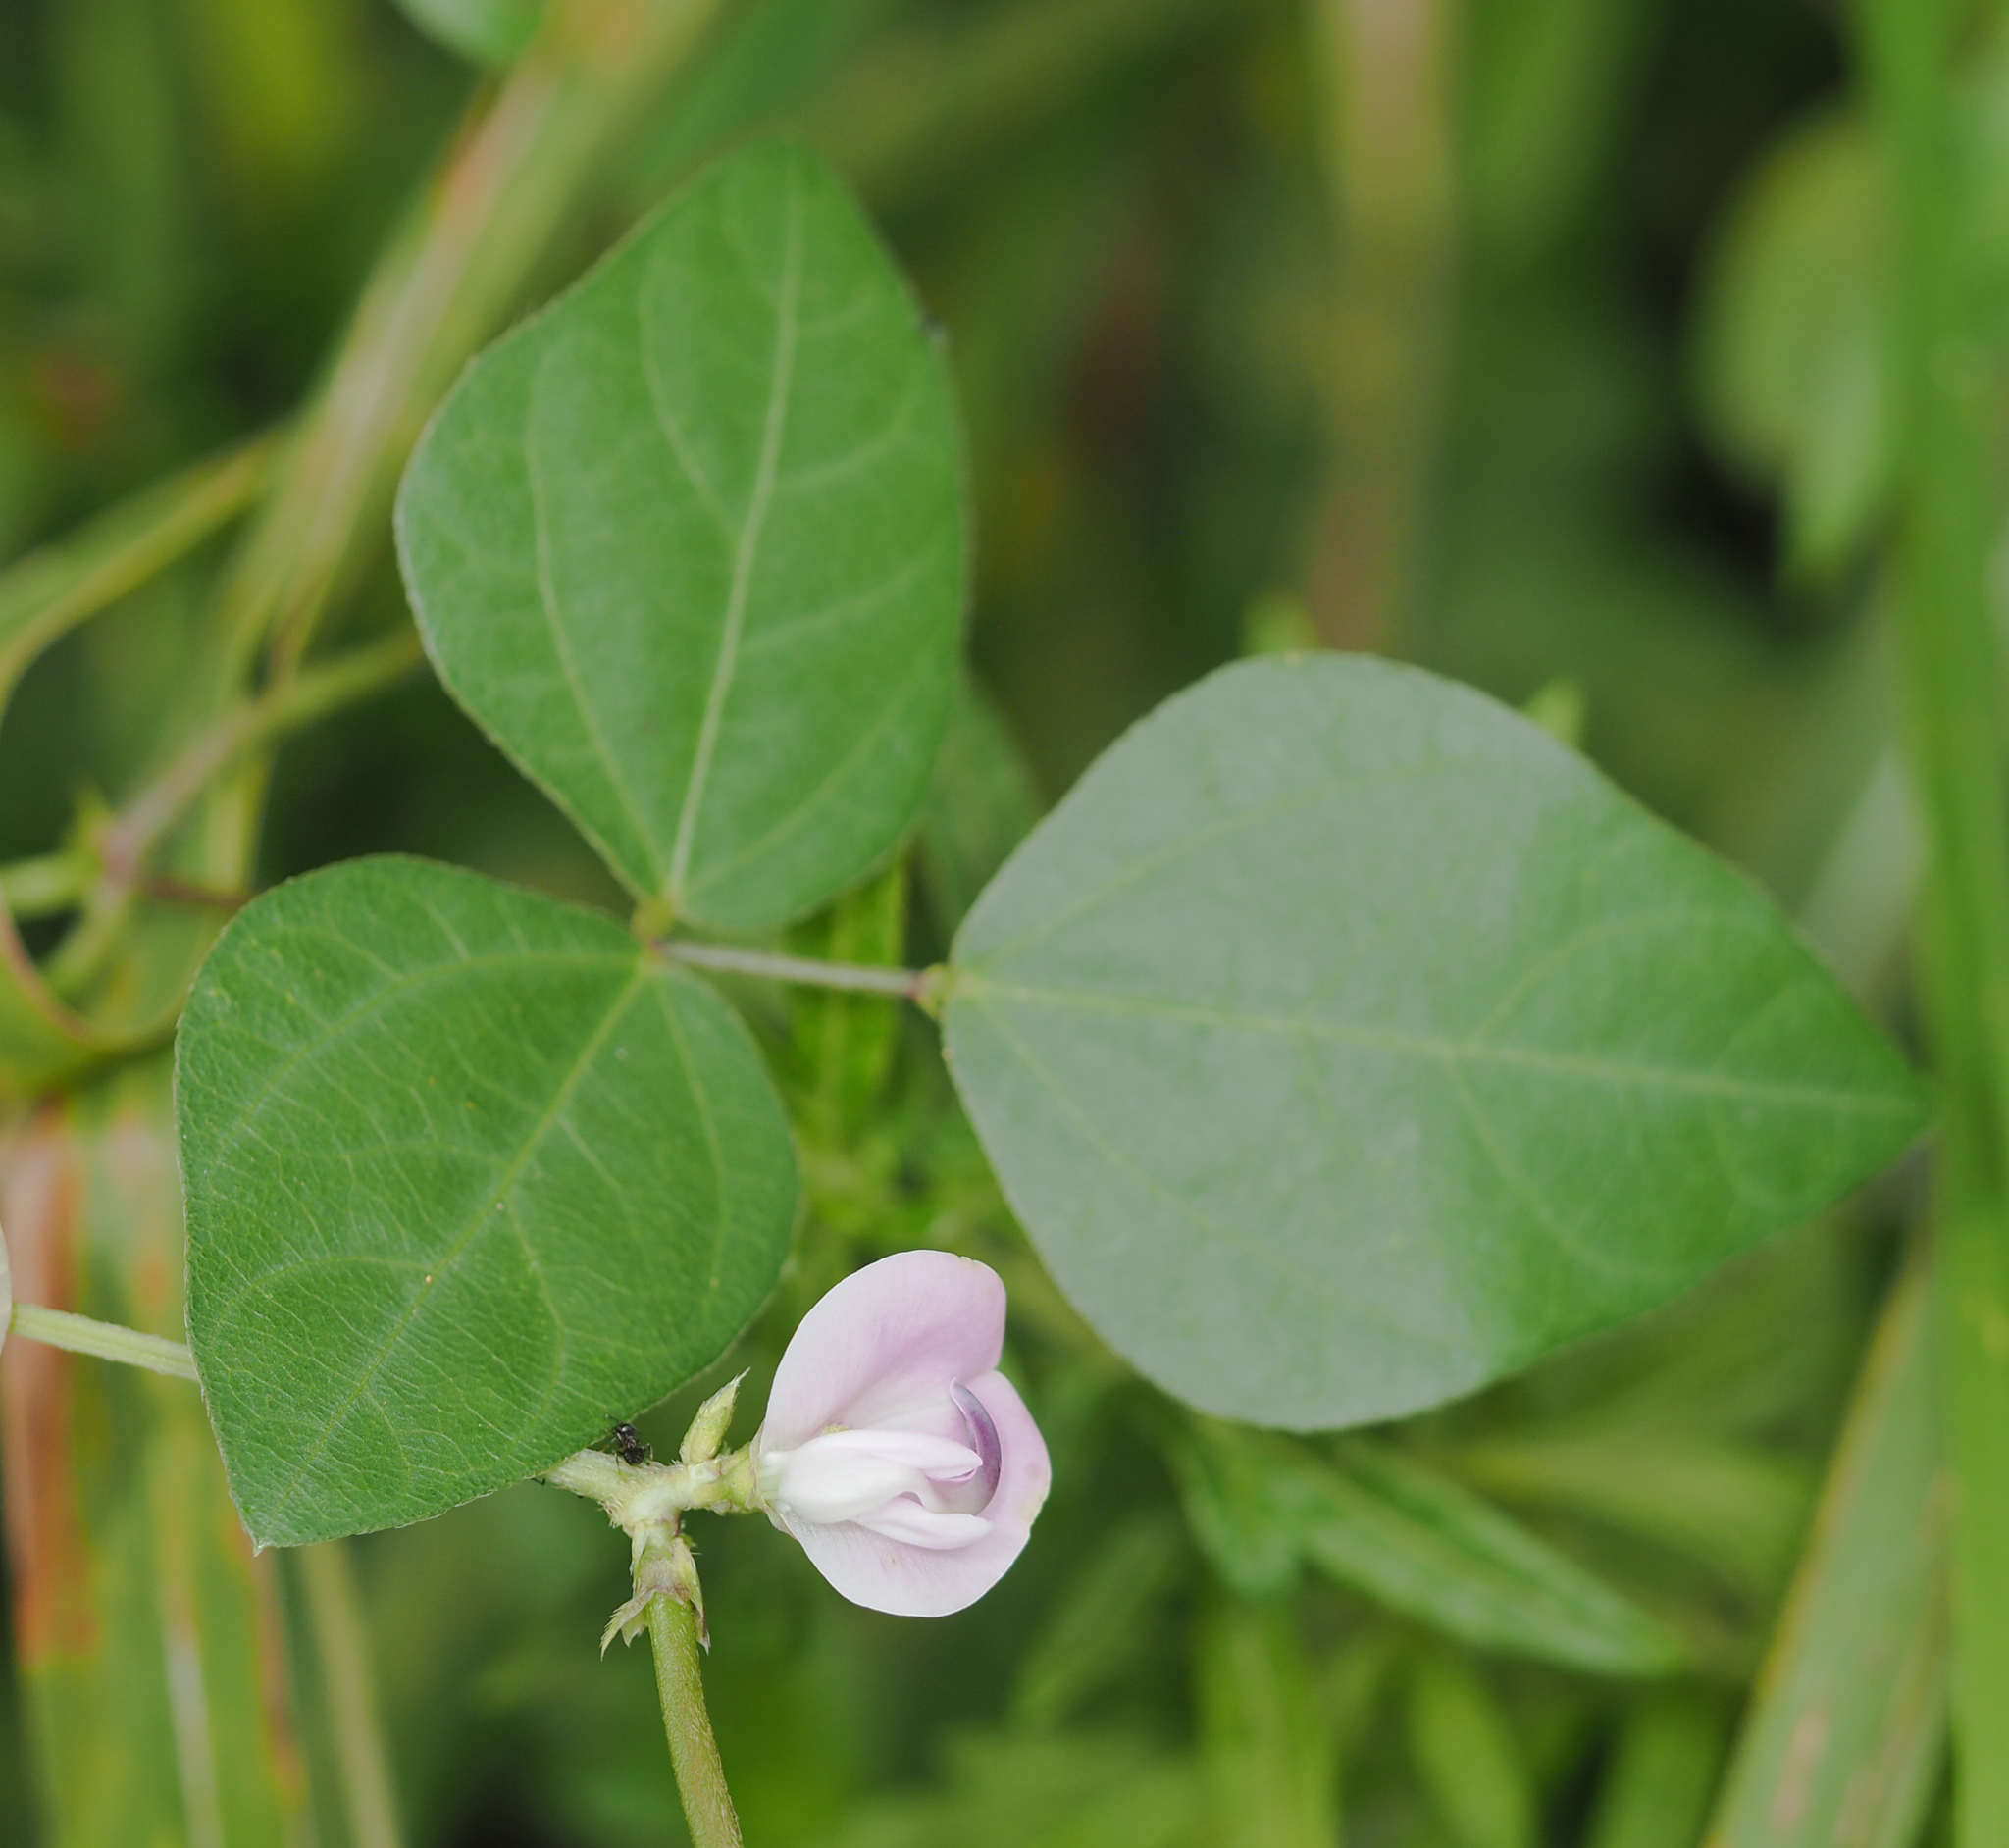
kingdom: Plantae
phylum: Tracheophyta
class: Magnoliopsida
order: Fabales
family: Fabaceae
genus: Strophostyles
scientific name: Strophostyles helvola
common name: Trailing wild bean
